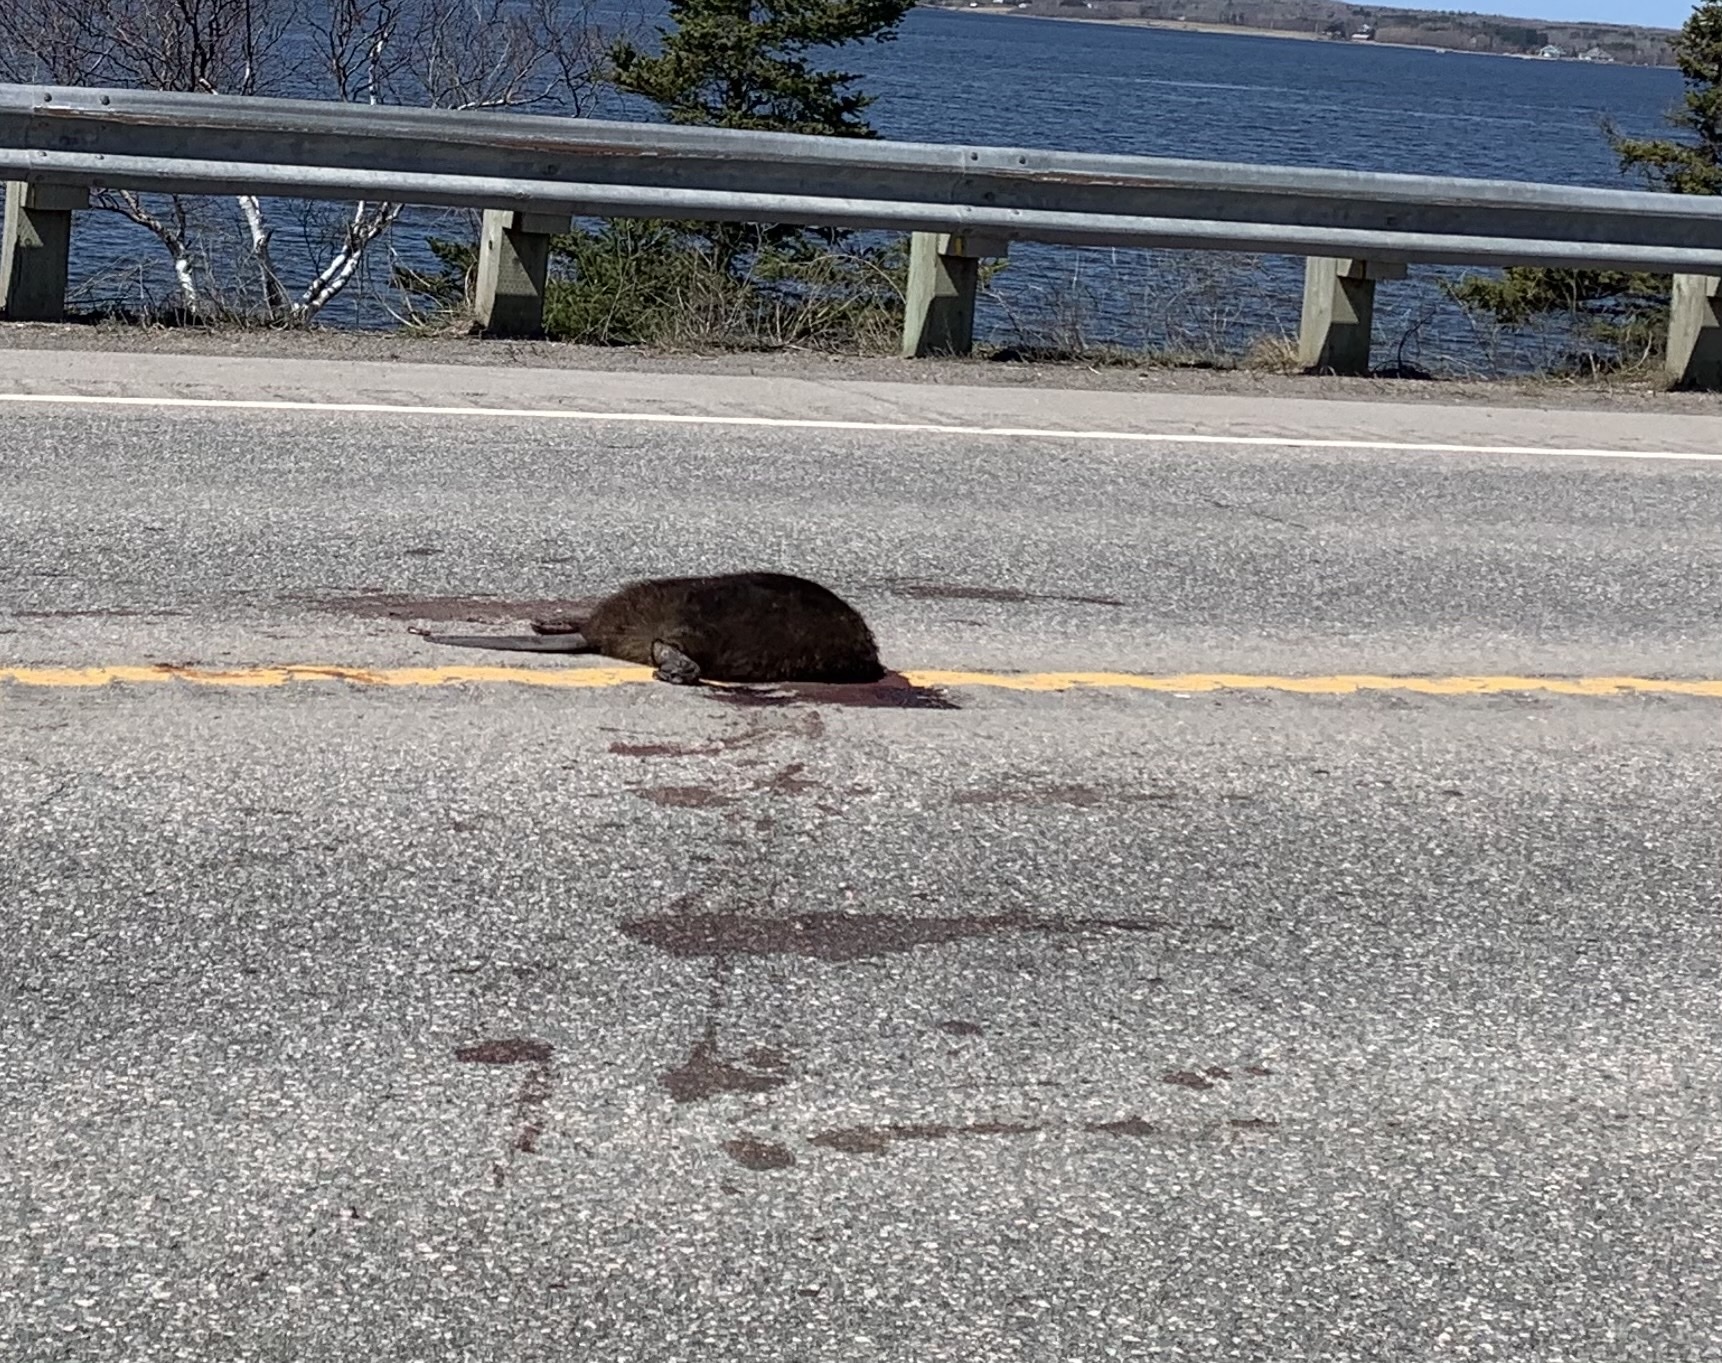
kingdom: Animalia
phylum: Chordata
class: Mammalia
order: Rodentia
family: Castoridae
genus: Castor
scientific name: Castor canadensis
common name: American beaver
